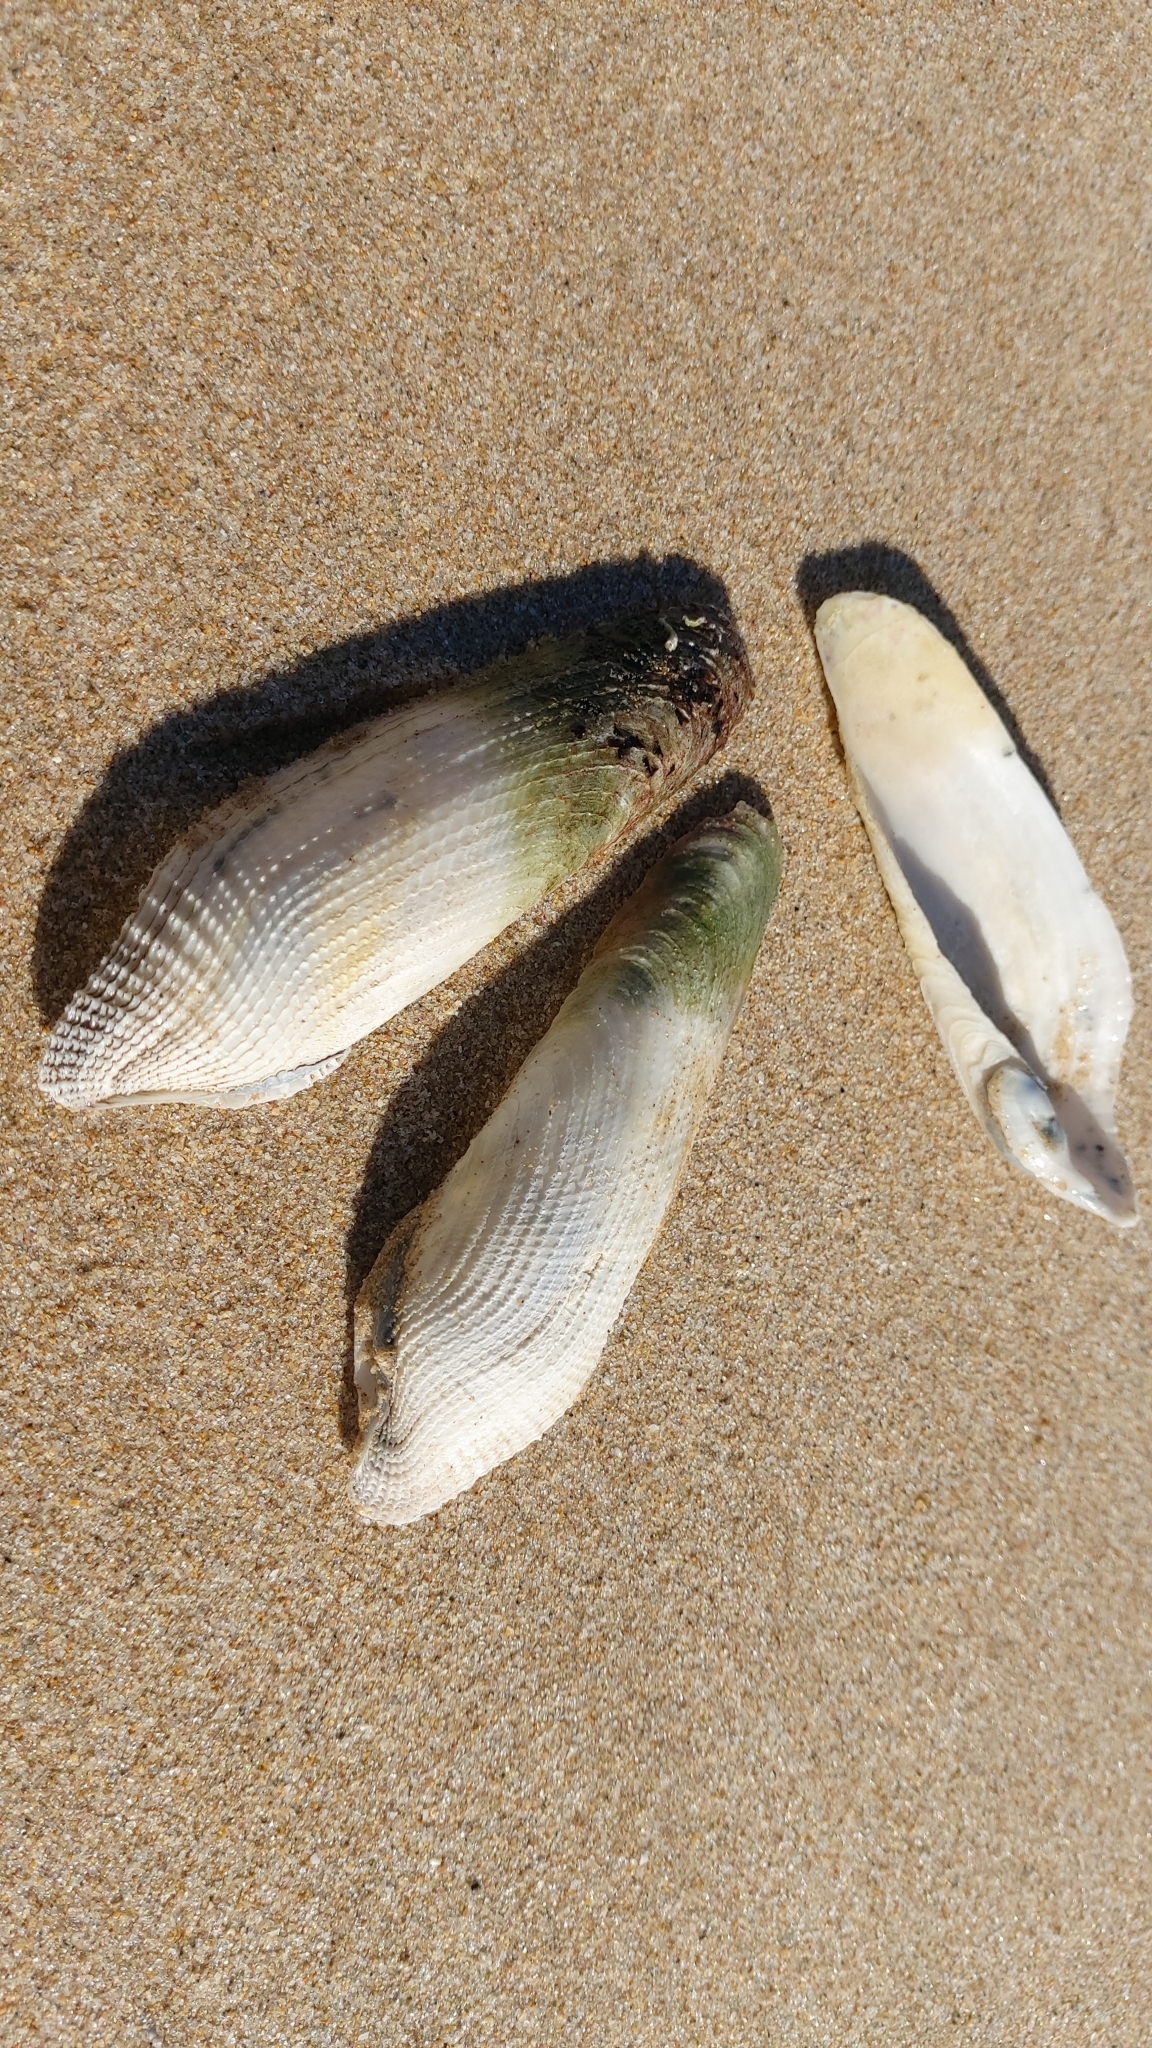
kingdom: Animalia
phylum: Mollusca
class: Bivalvia
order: Myida
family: Pholadidae
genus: Pholas
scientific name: Pholas dactylus
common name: Common piddock
